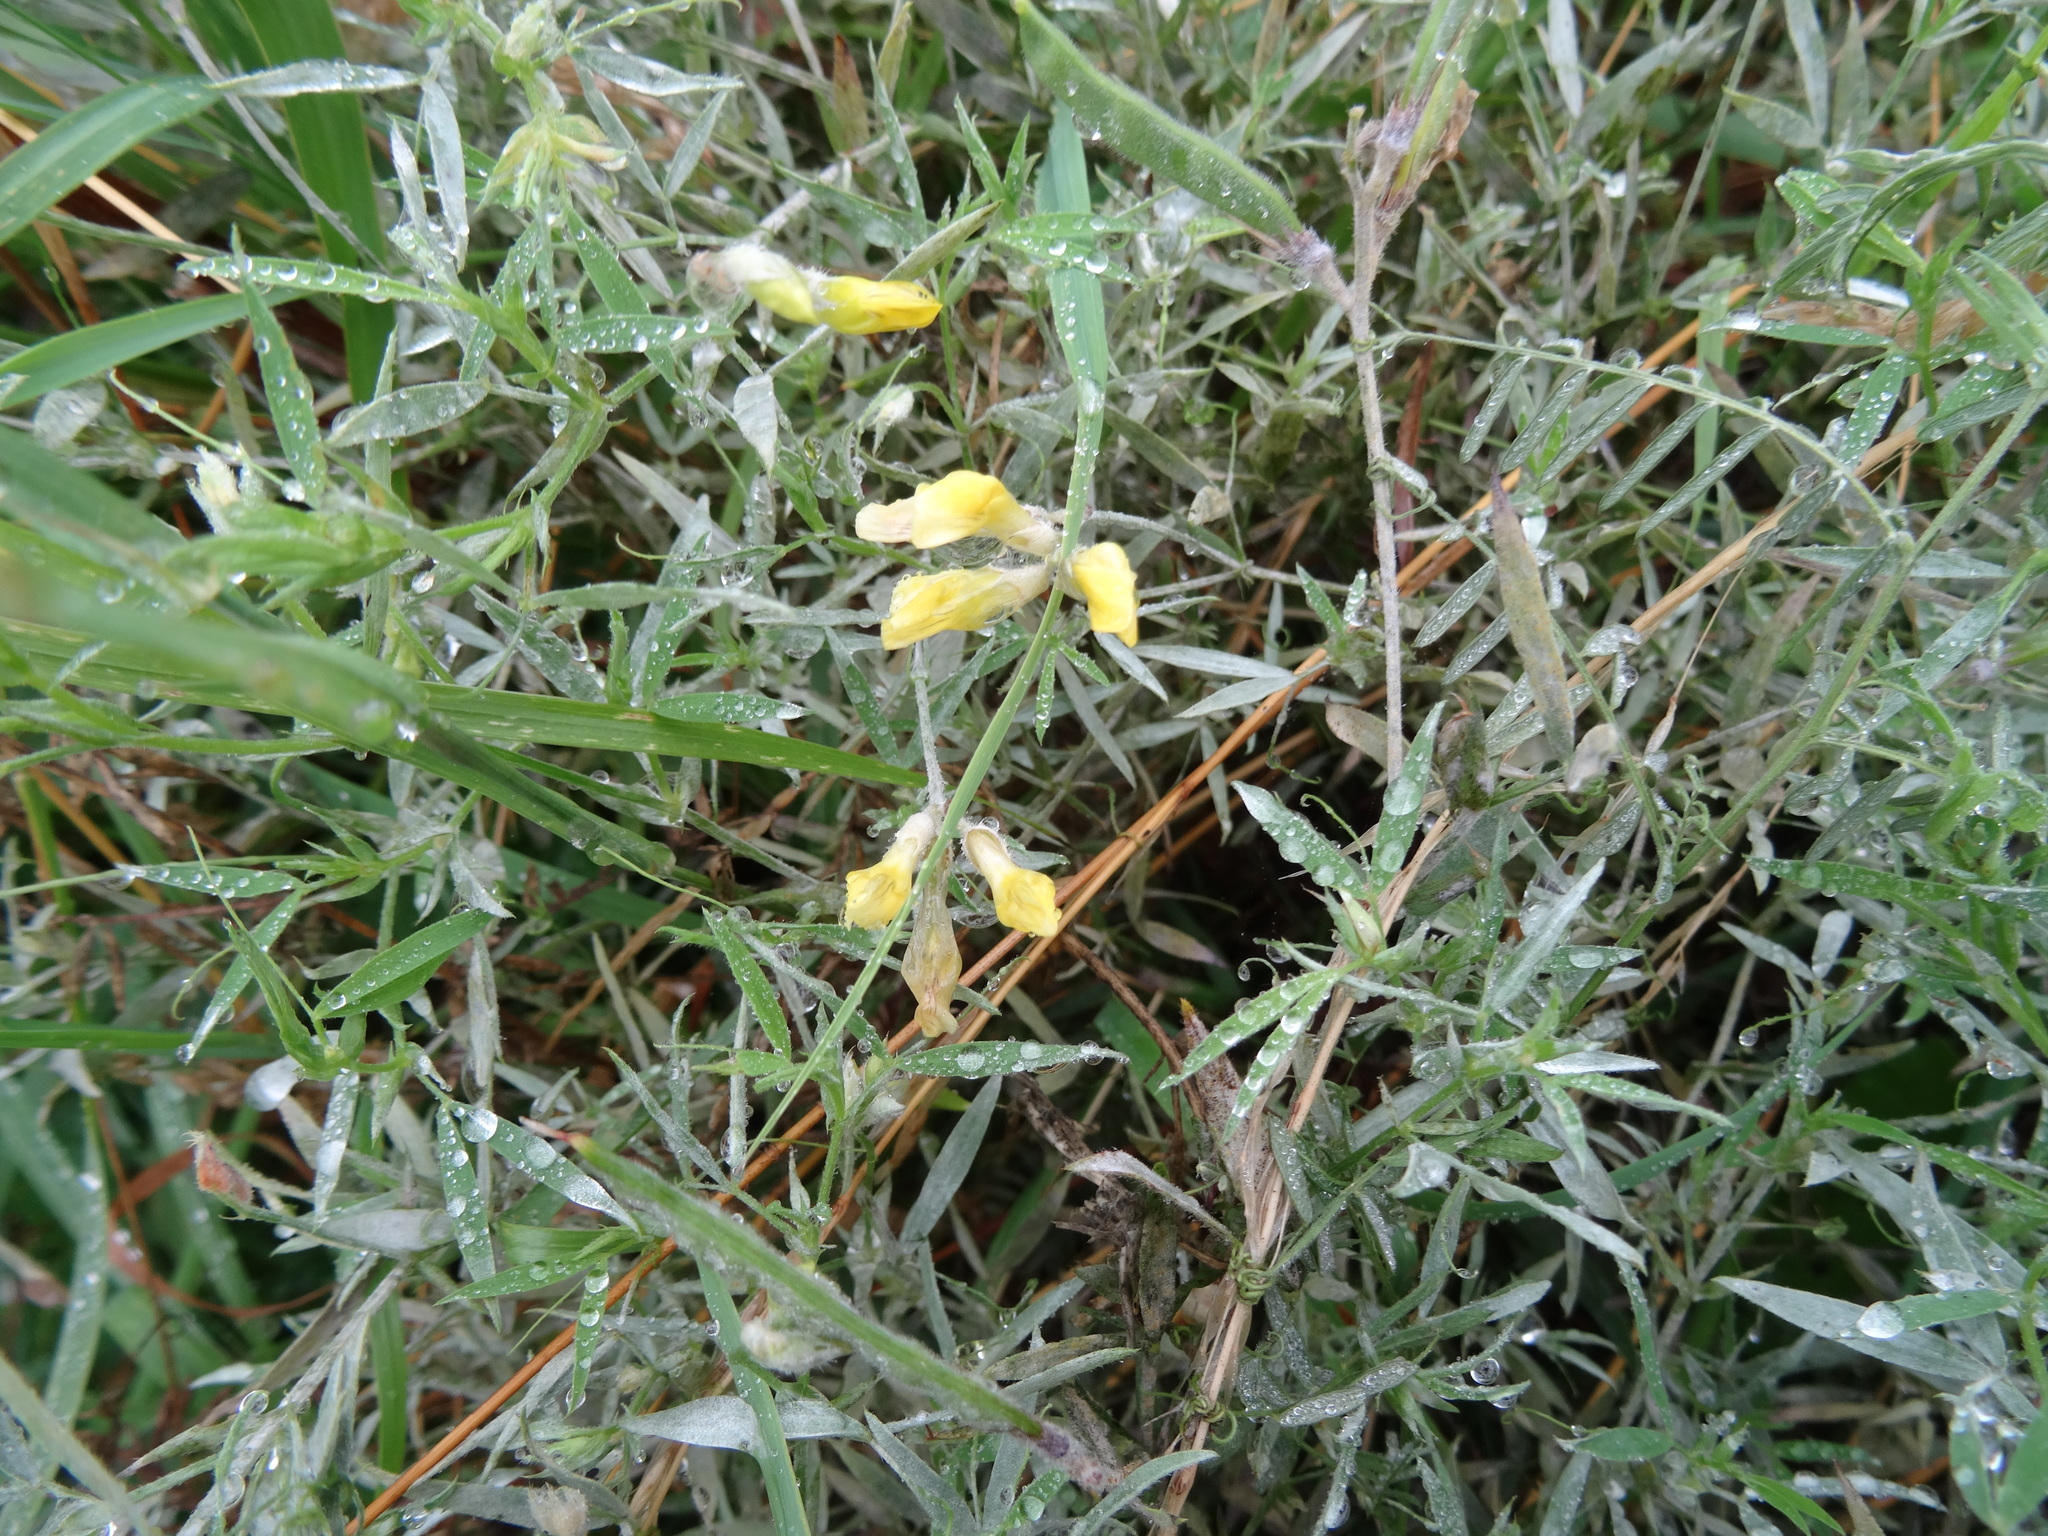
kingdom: Plantae
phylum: Tracheophyta
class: Magnoliopsida
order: Fabales
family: Fabaceae
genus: Lathyrus
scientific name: Lathyrus pratensis
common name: Meadow vetchling
